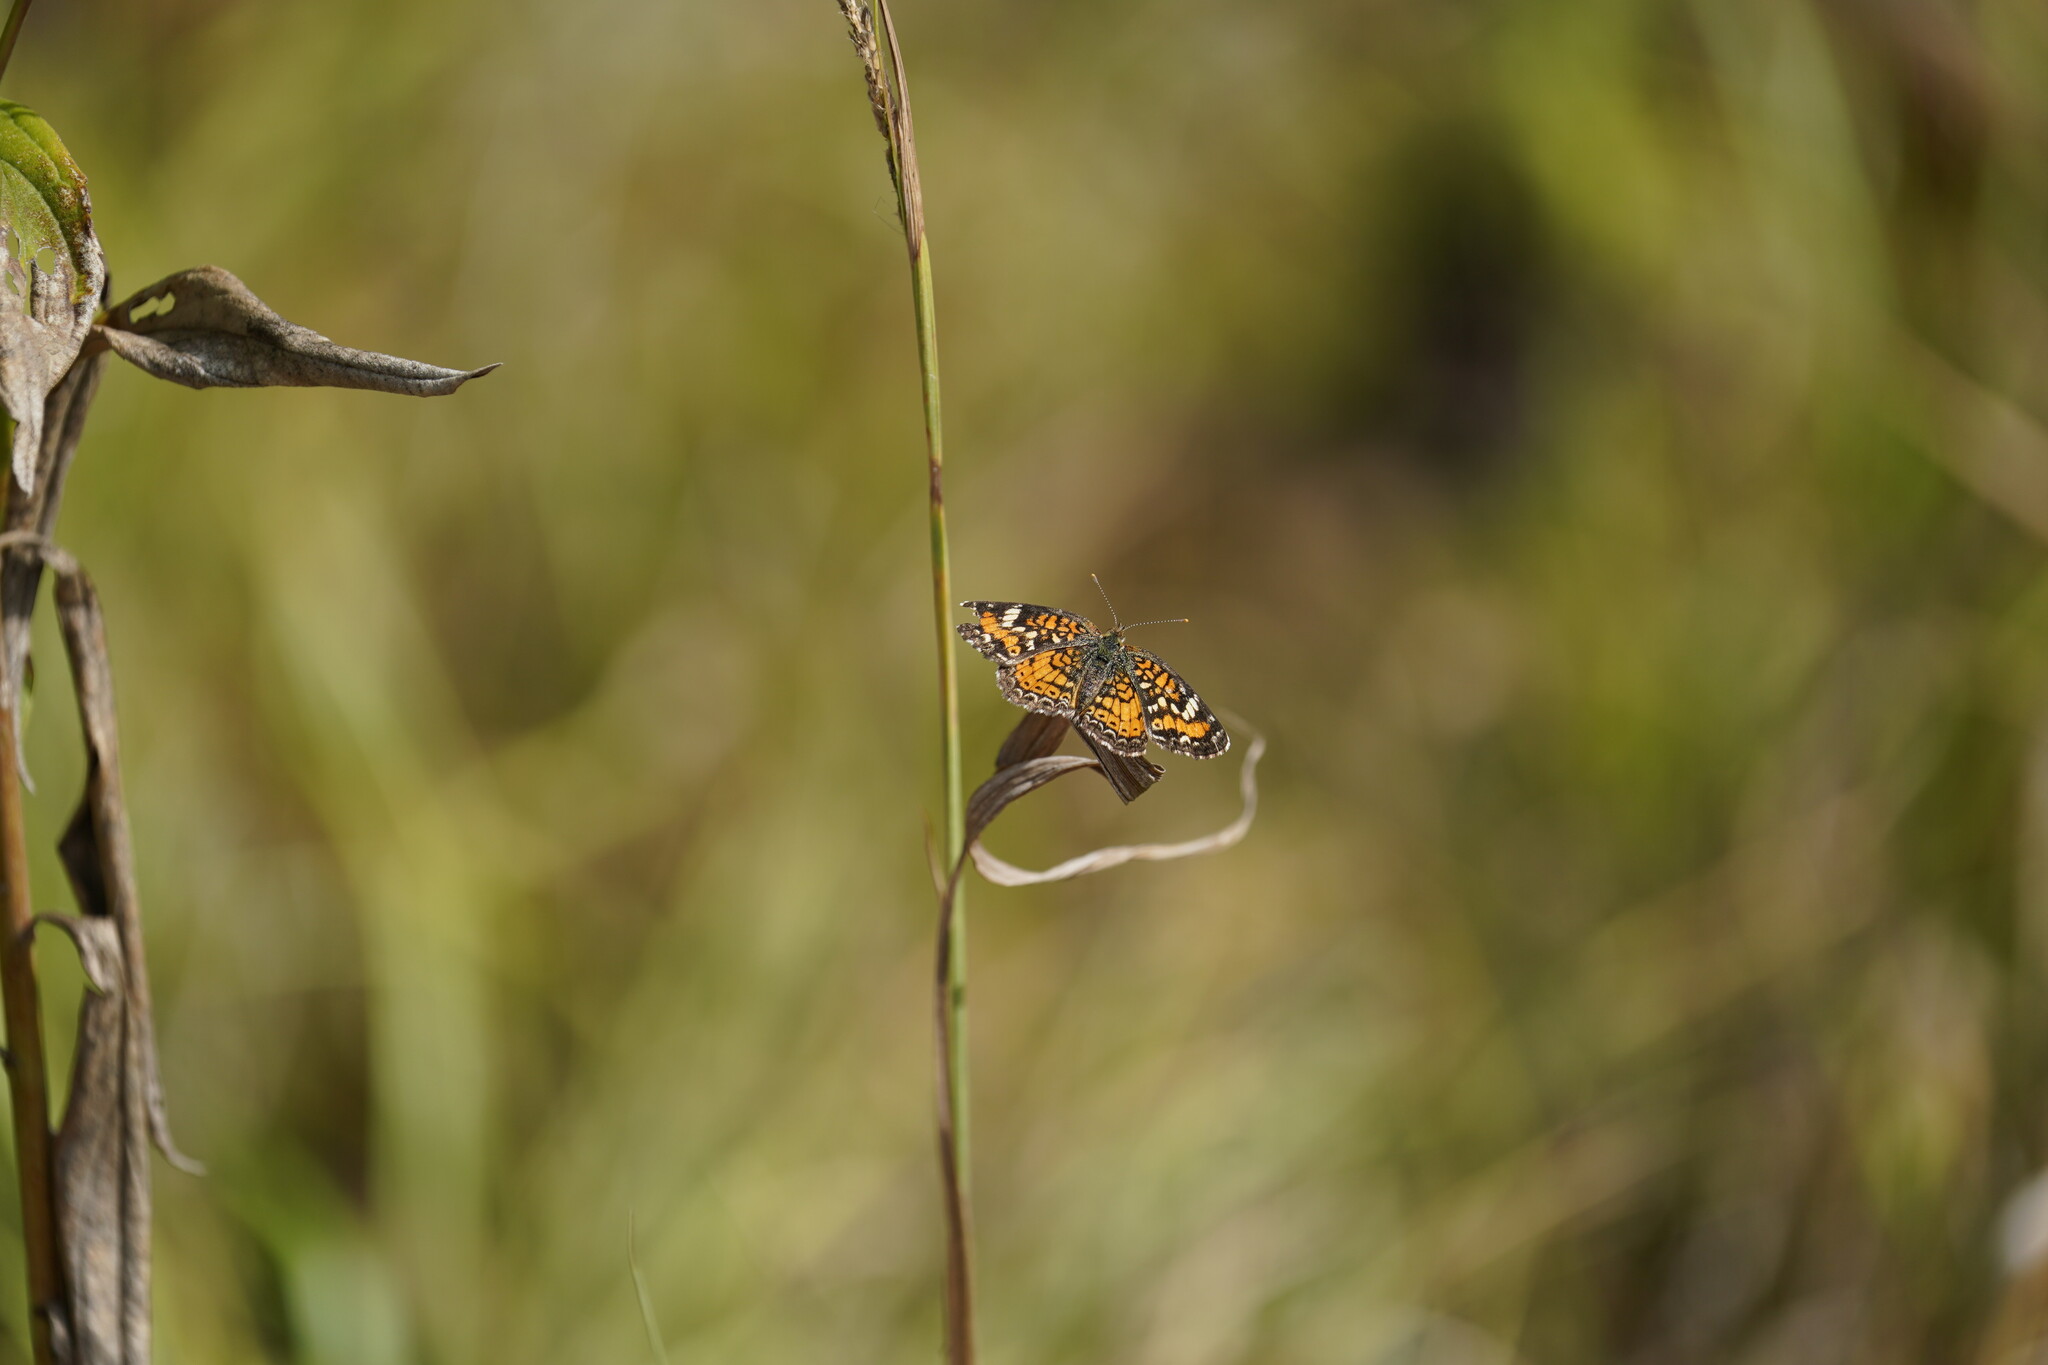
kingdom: Animalia
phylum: Arthropoda
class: Insecta
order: Lepidoptera
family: Nymphalidae
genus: Phyciodes
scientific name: Phyciodes phaon
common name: Phaon crescent
